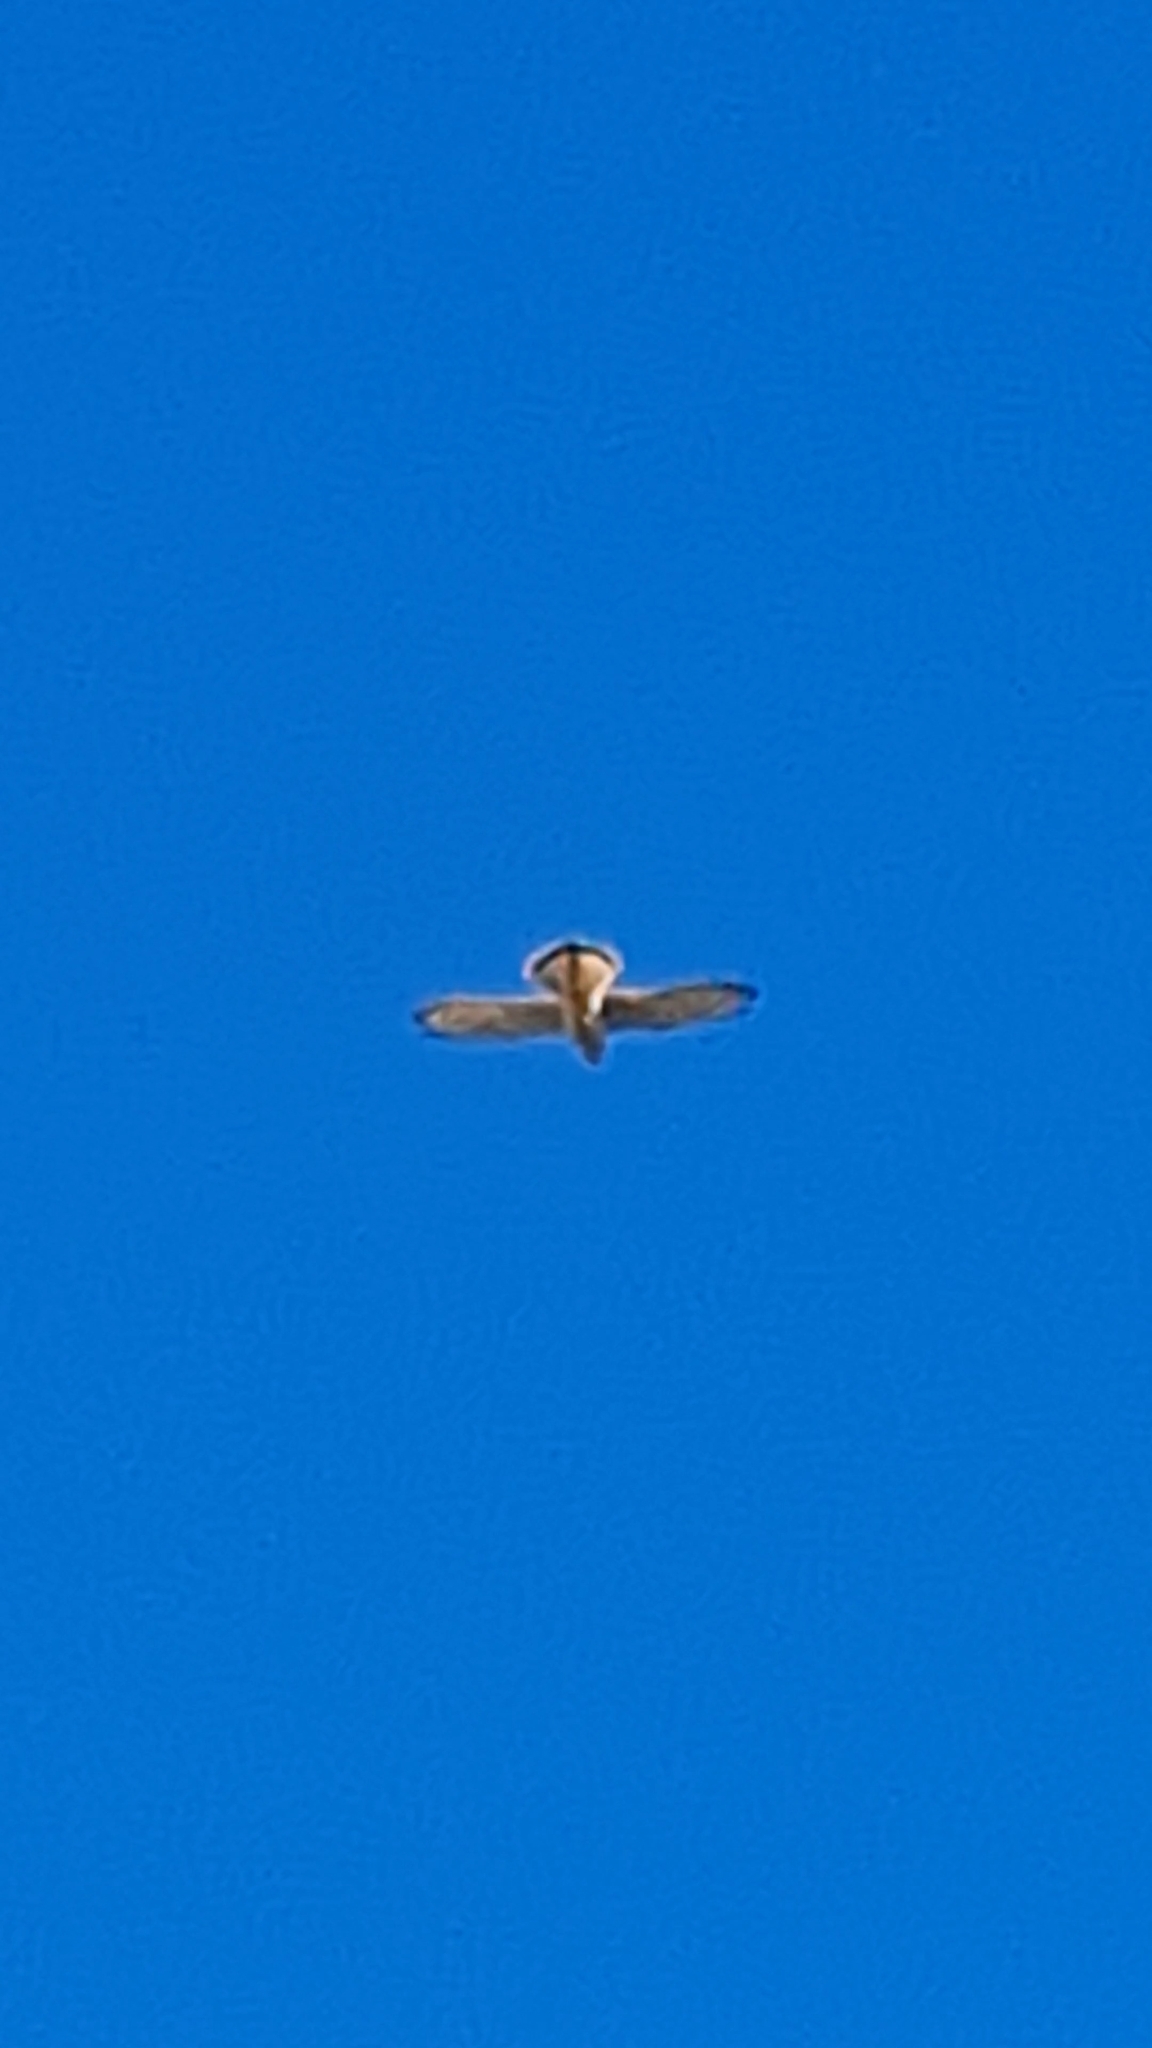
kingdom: Animalia
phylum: Chordata
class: Aves
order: Falconiformes
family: Falconidae
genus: Falco
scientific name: Falco tinnunculus
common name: Common kestrel
